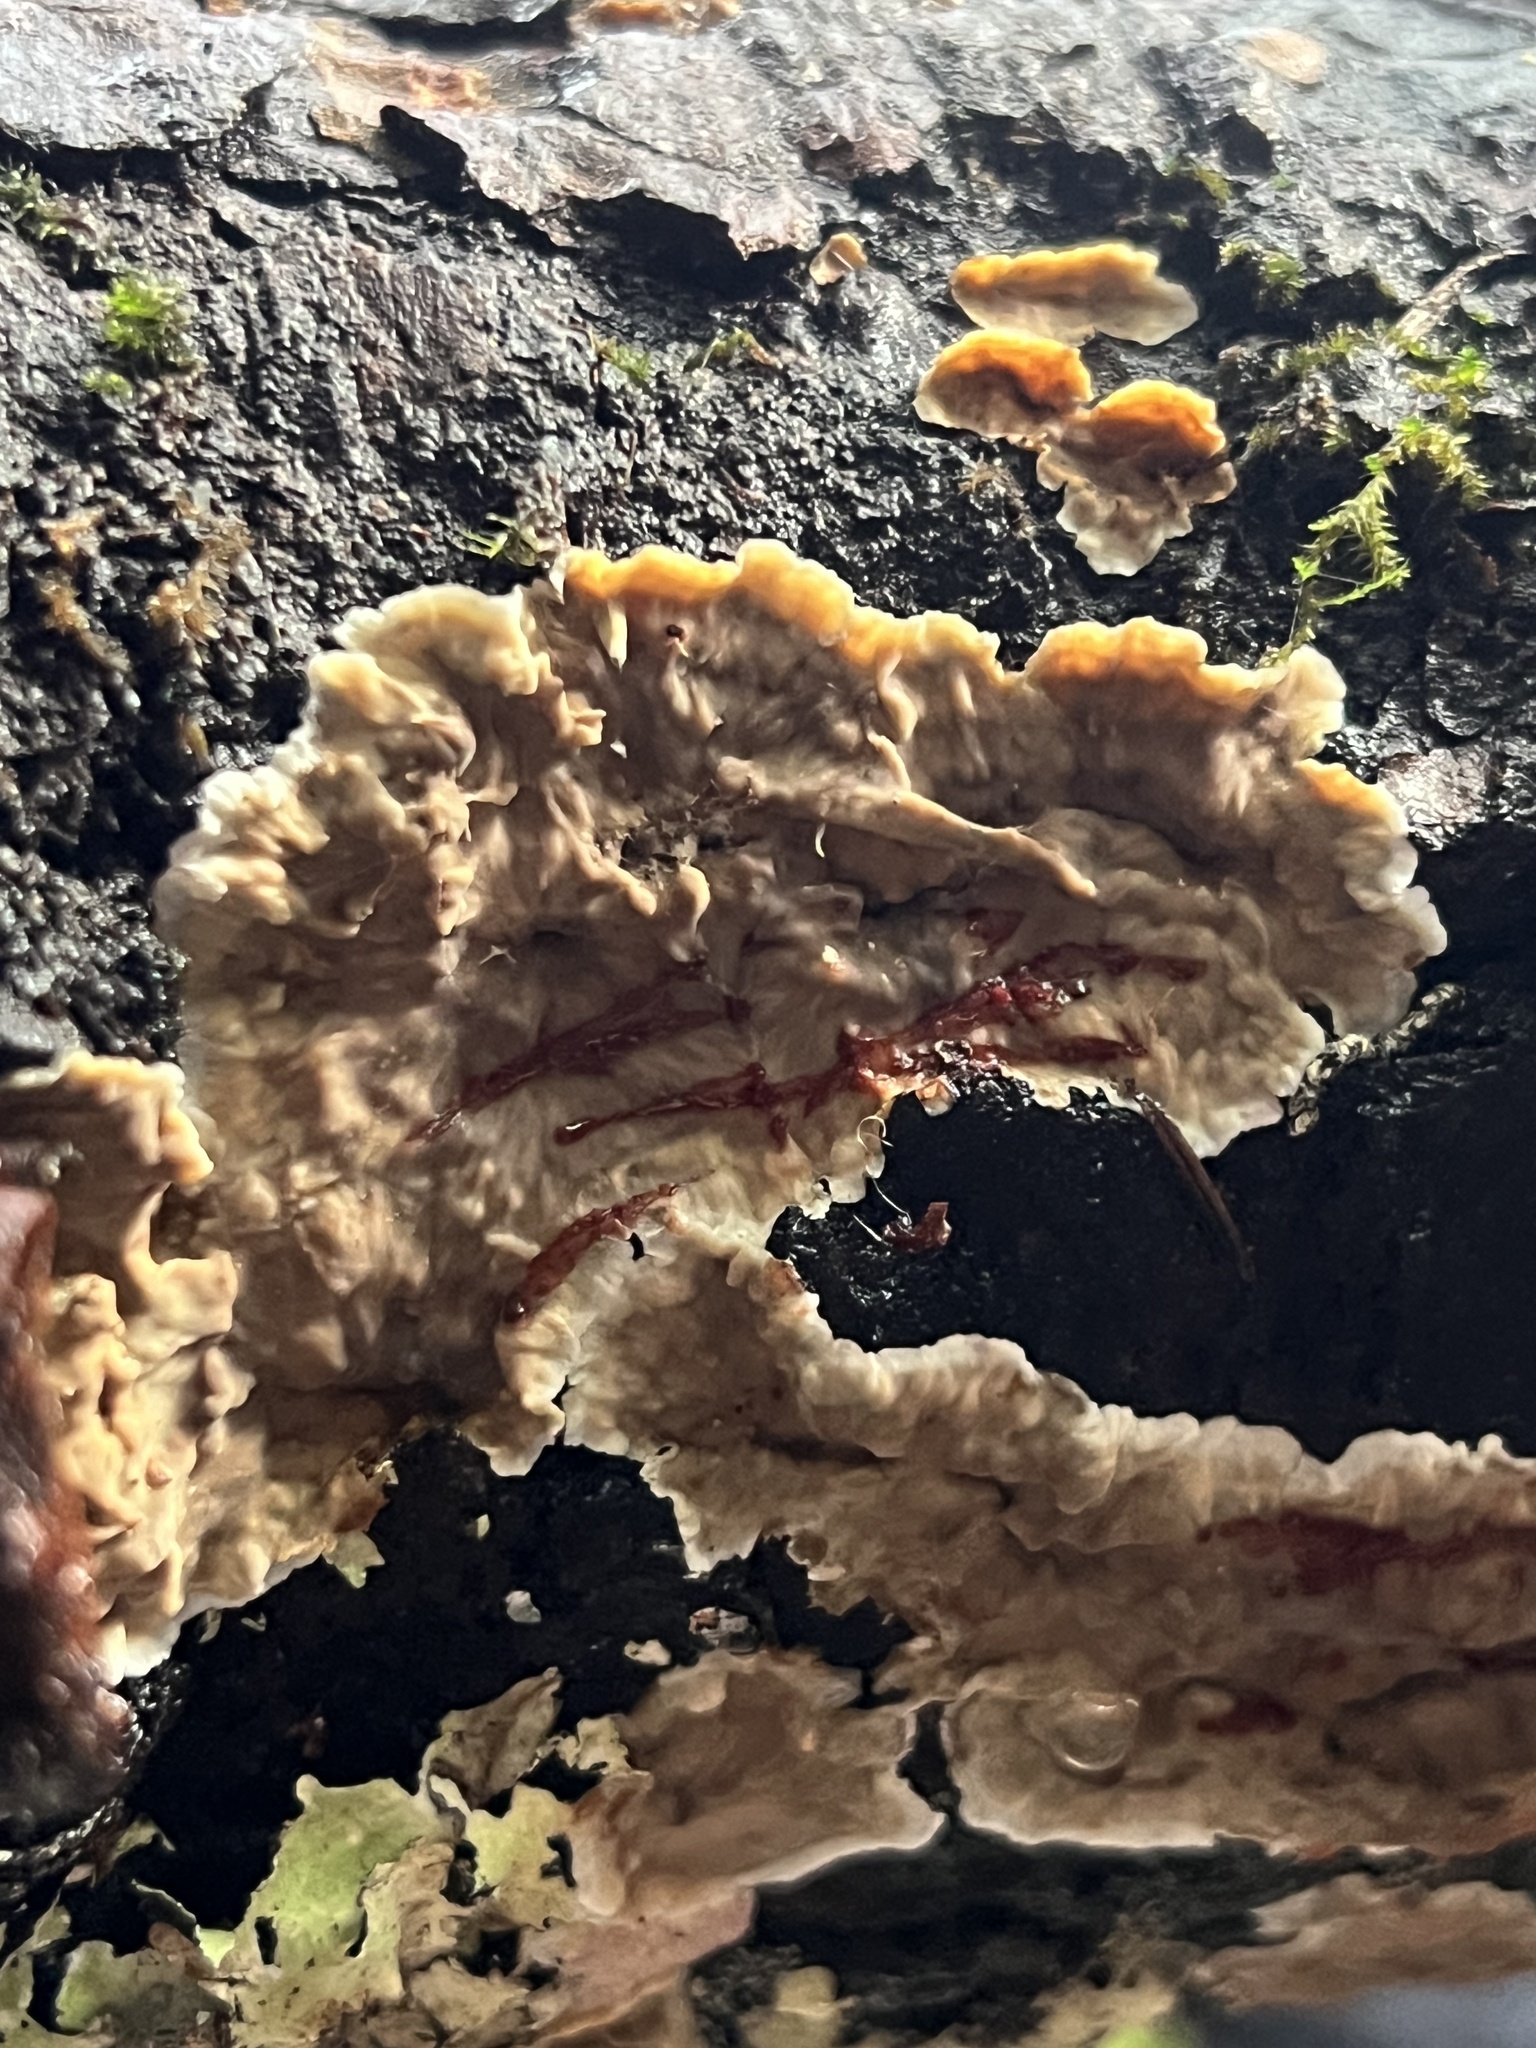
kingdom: Fungi
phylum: Basidiomycota
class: Agaricomycetes
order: Russulales
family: Stereaceae
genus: Stereum
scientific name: Stereum sanguinolentum
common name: Bleeding conifer crust
